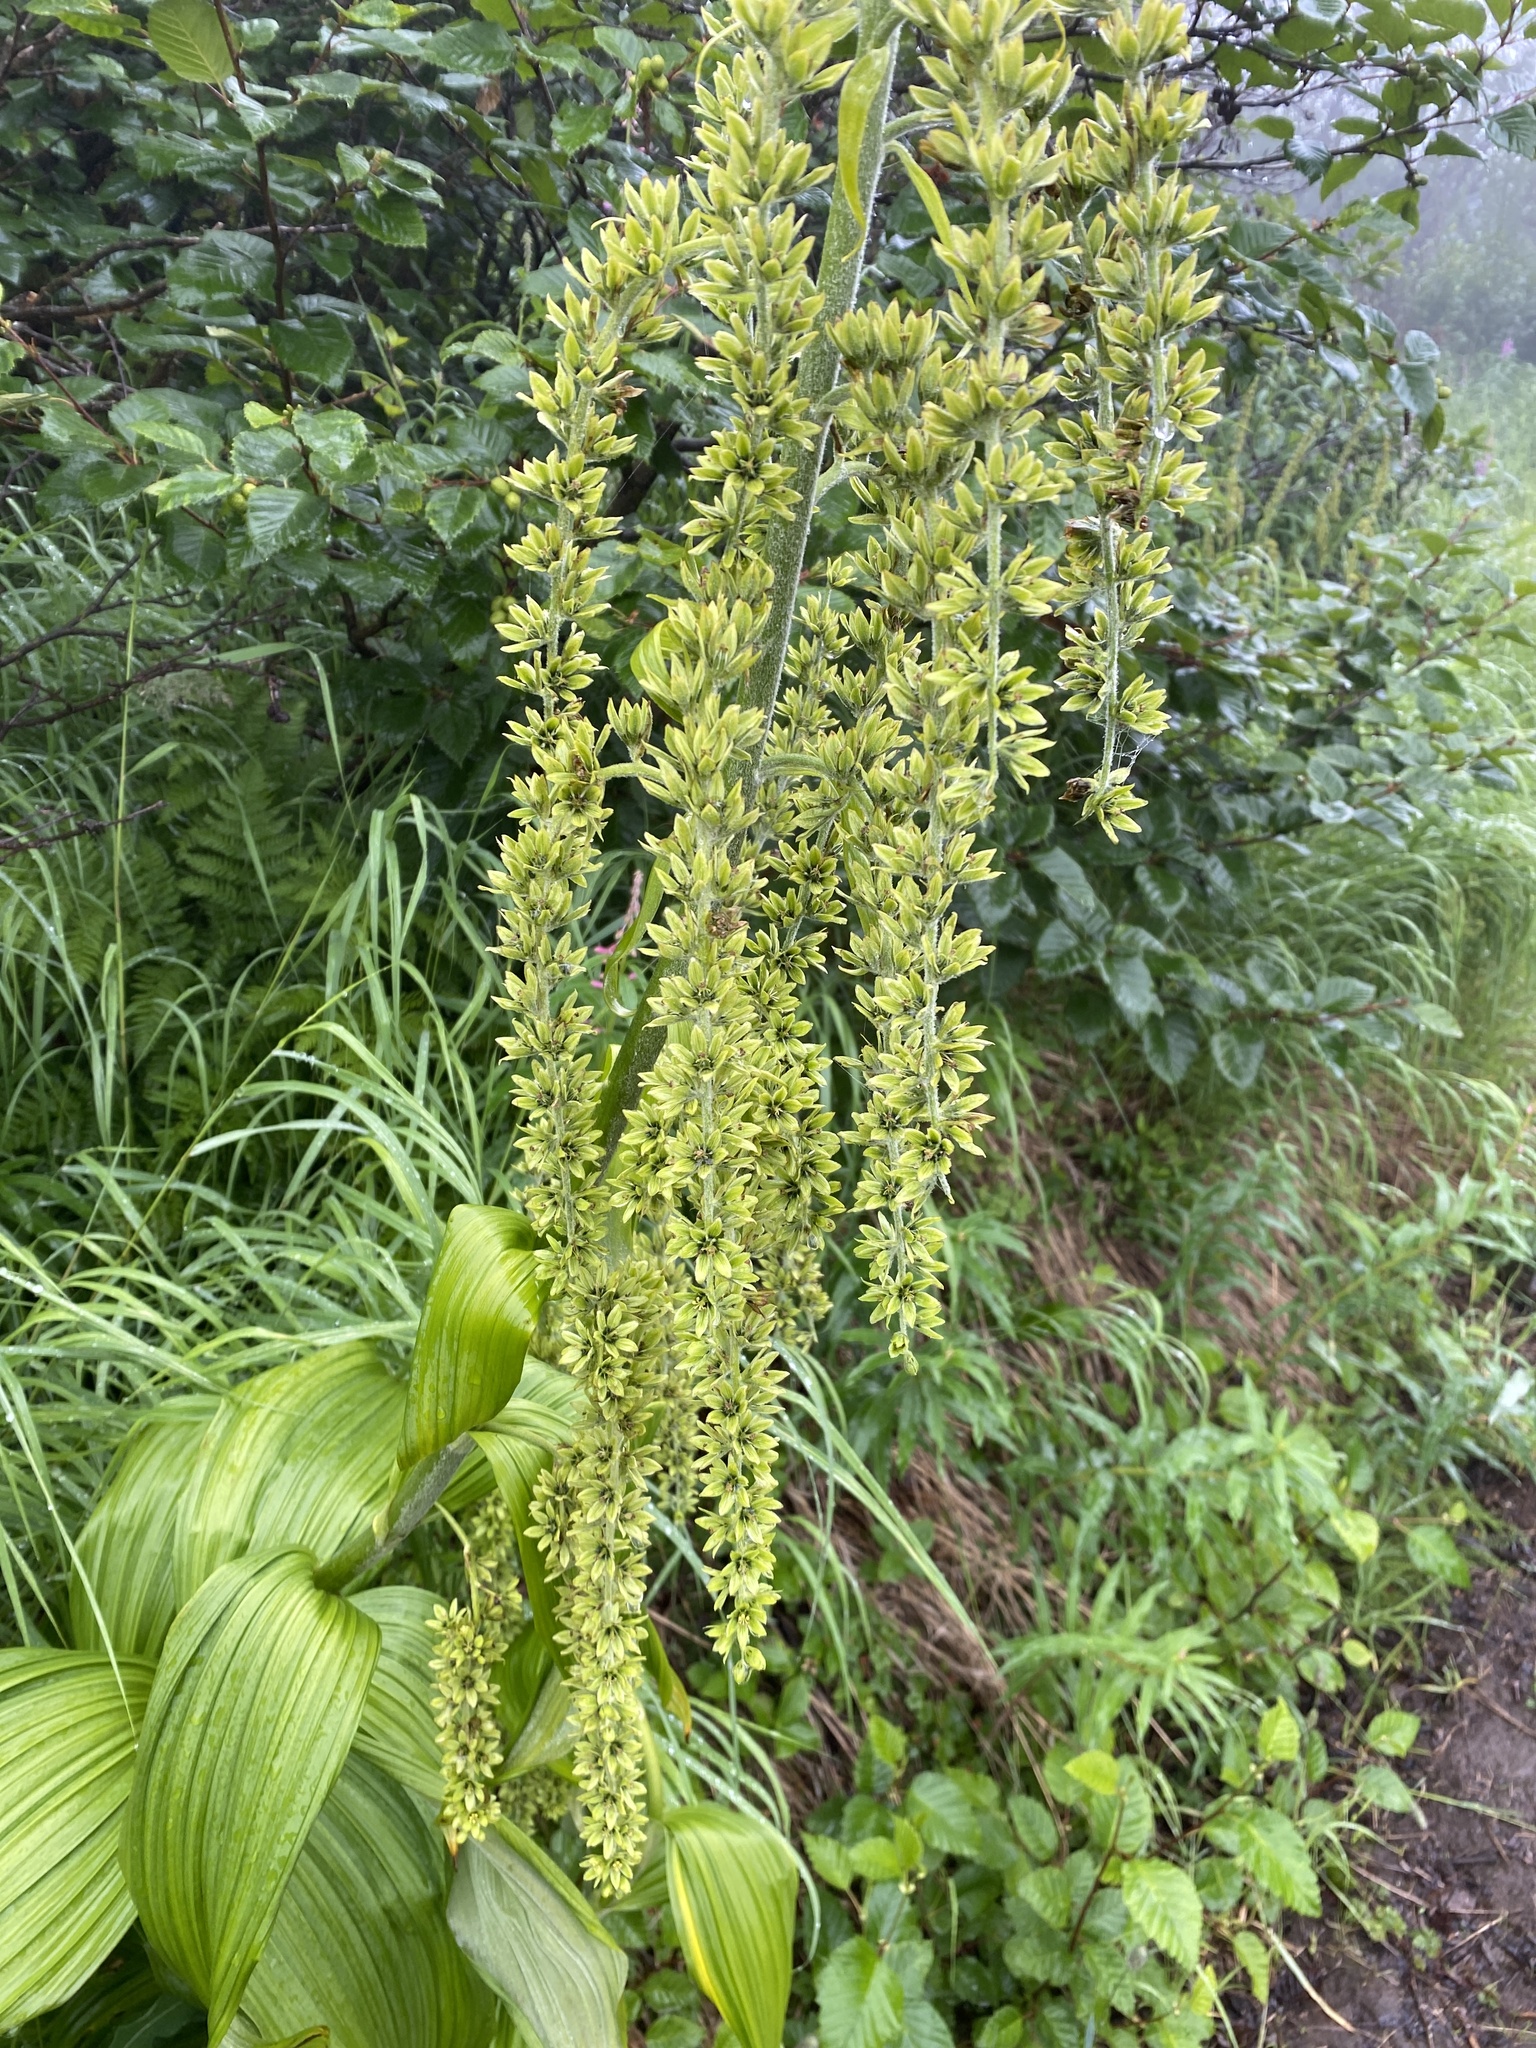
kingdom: Plantae
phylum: Tracheophyta
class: Liliopsida
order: Liliales
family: Melanthiaceae
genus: Veratrum
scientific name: Veratrum viride
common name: American false hellebore
